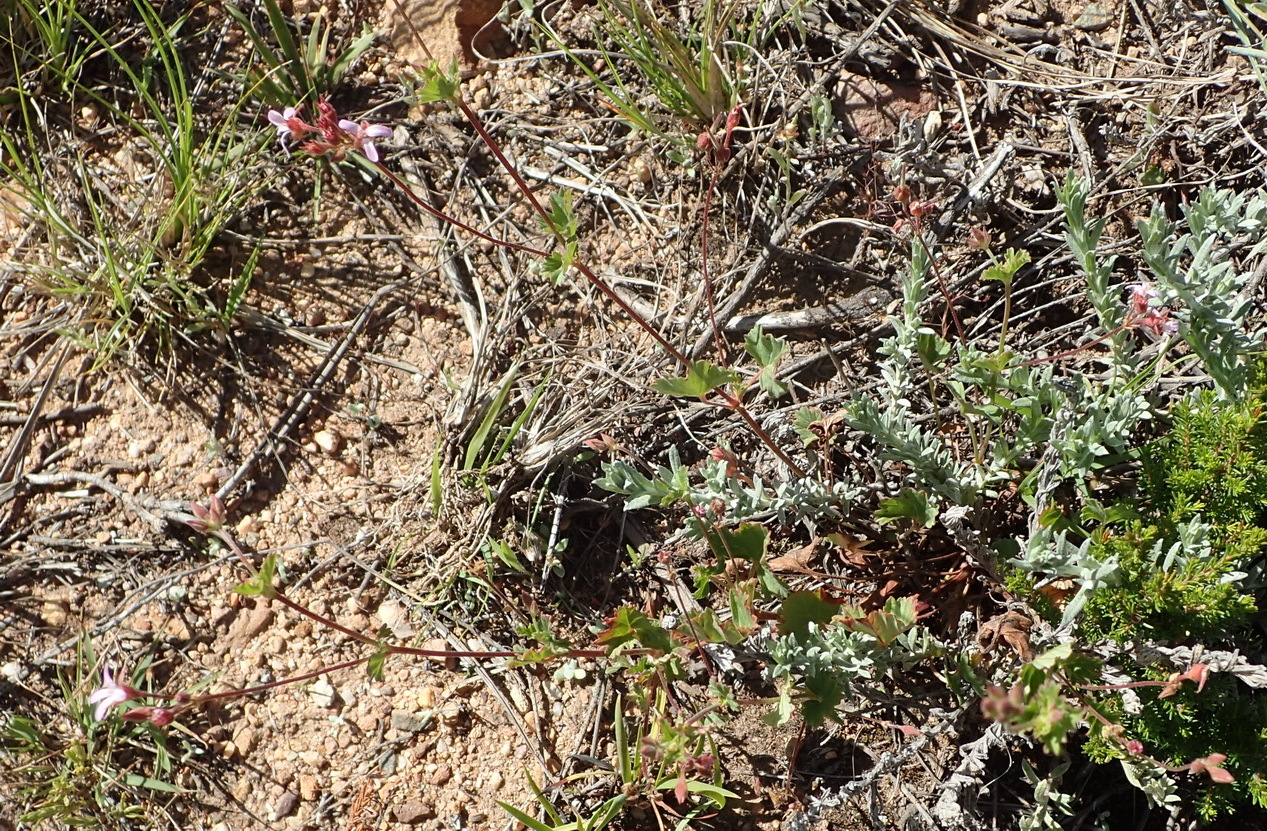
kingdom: Plantae
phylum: Tracheophyta
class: Magnoliopsida
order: Geraniales
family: Geraniaceae
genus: Pelargonium
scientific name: Pelargonium grossularioides
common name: Gooseberry geranium
